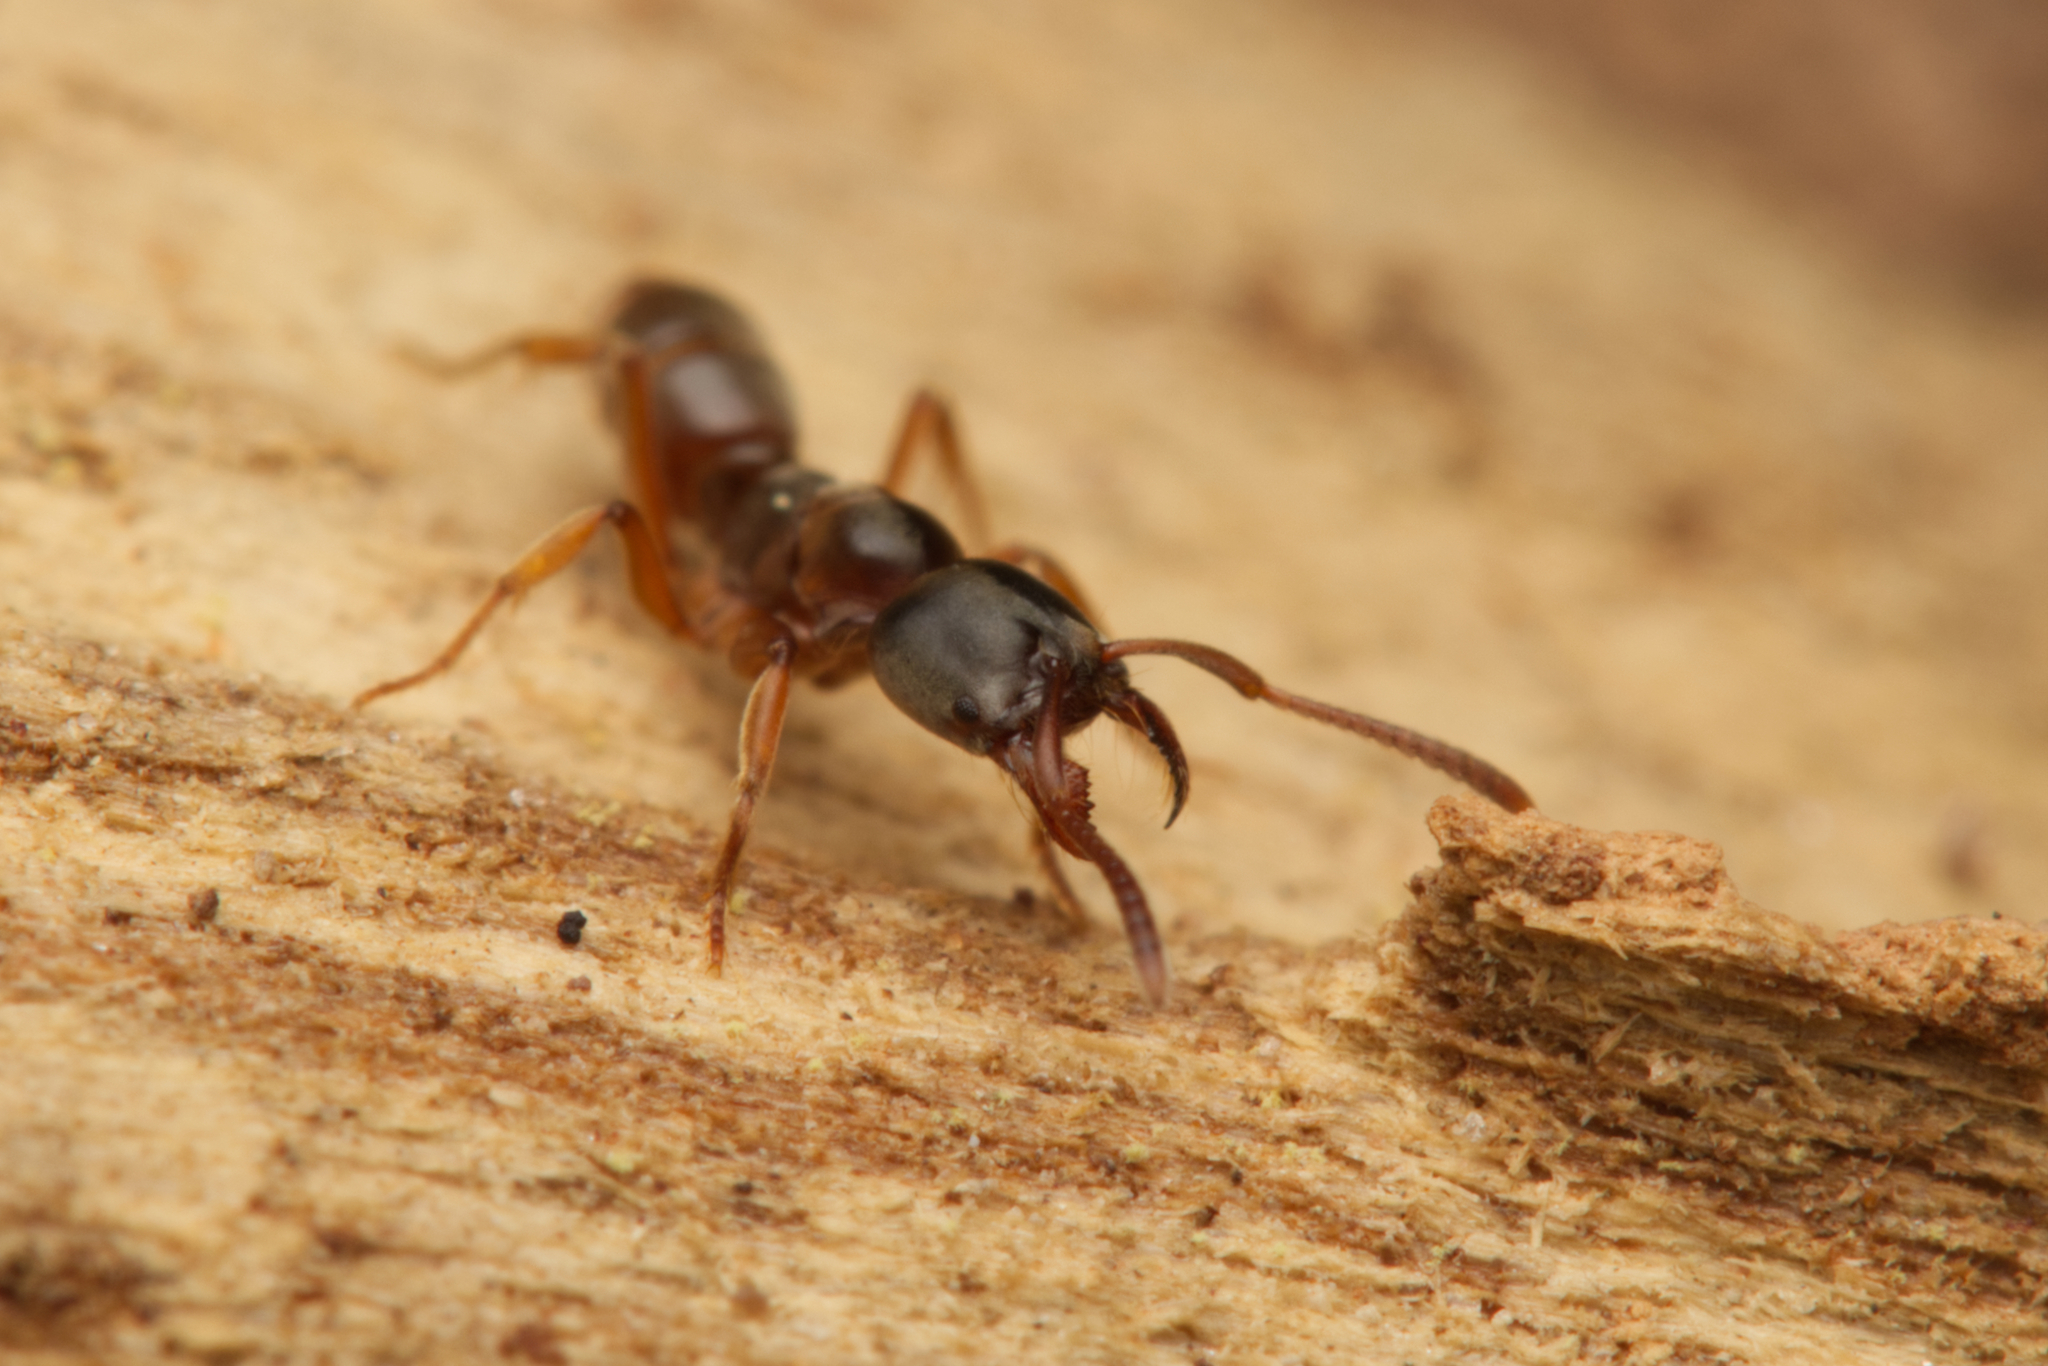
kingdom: Animalia
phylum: Arthropoda
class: Insecta
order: Hymenoptera
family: Formicidae
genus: Brachyponera
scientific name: Brachyponera
